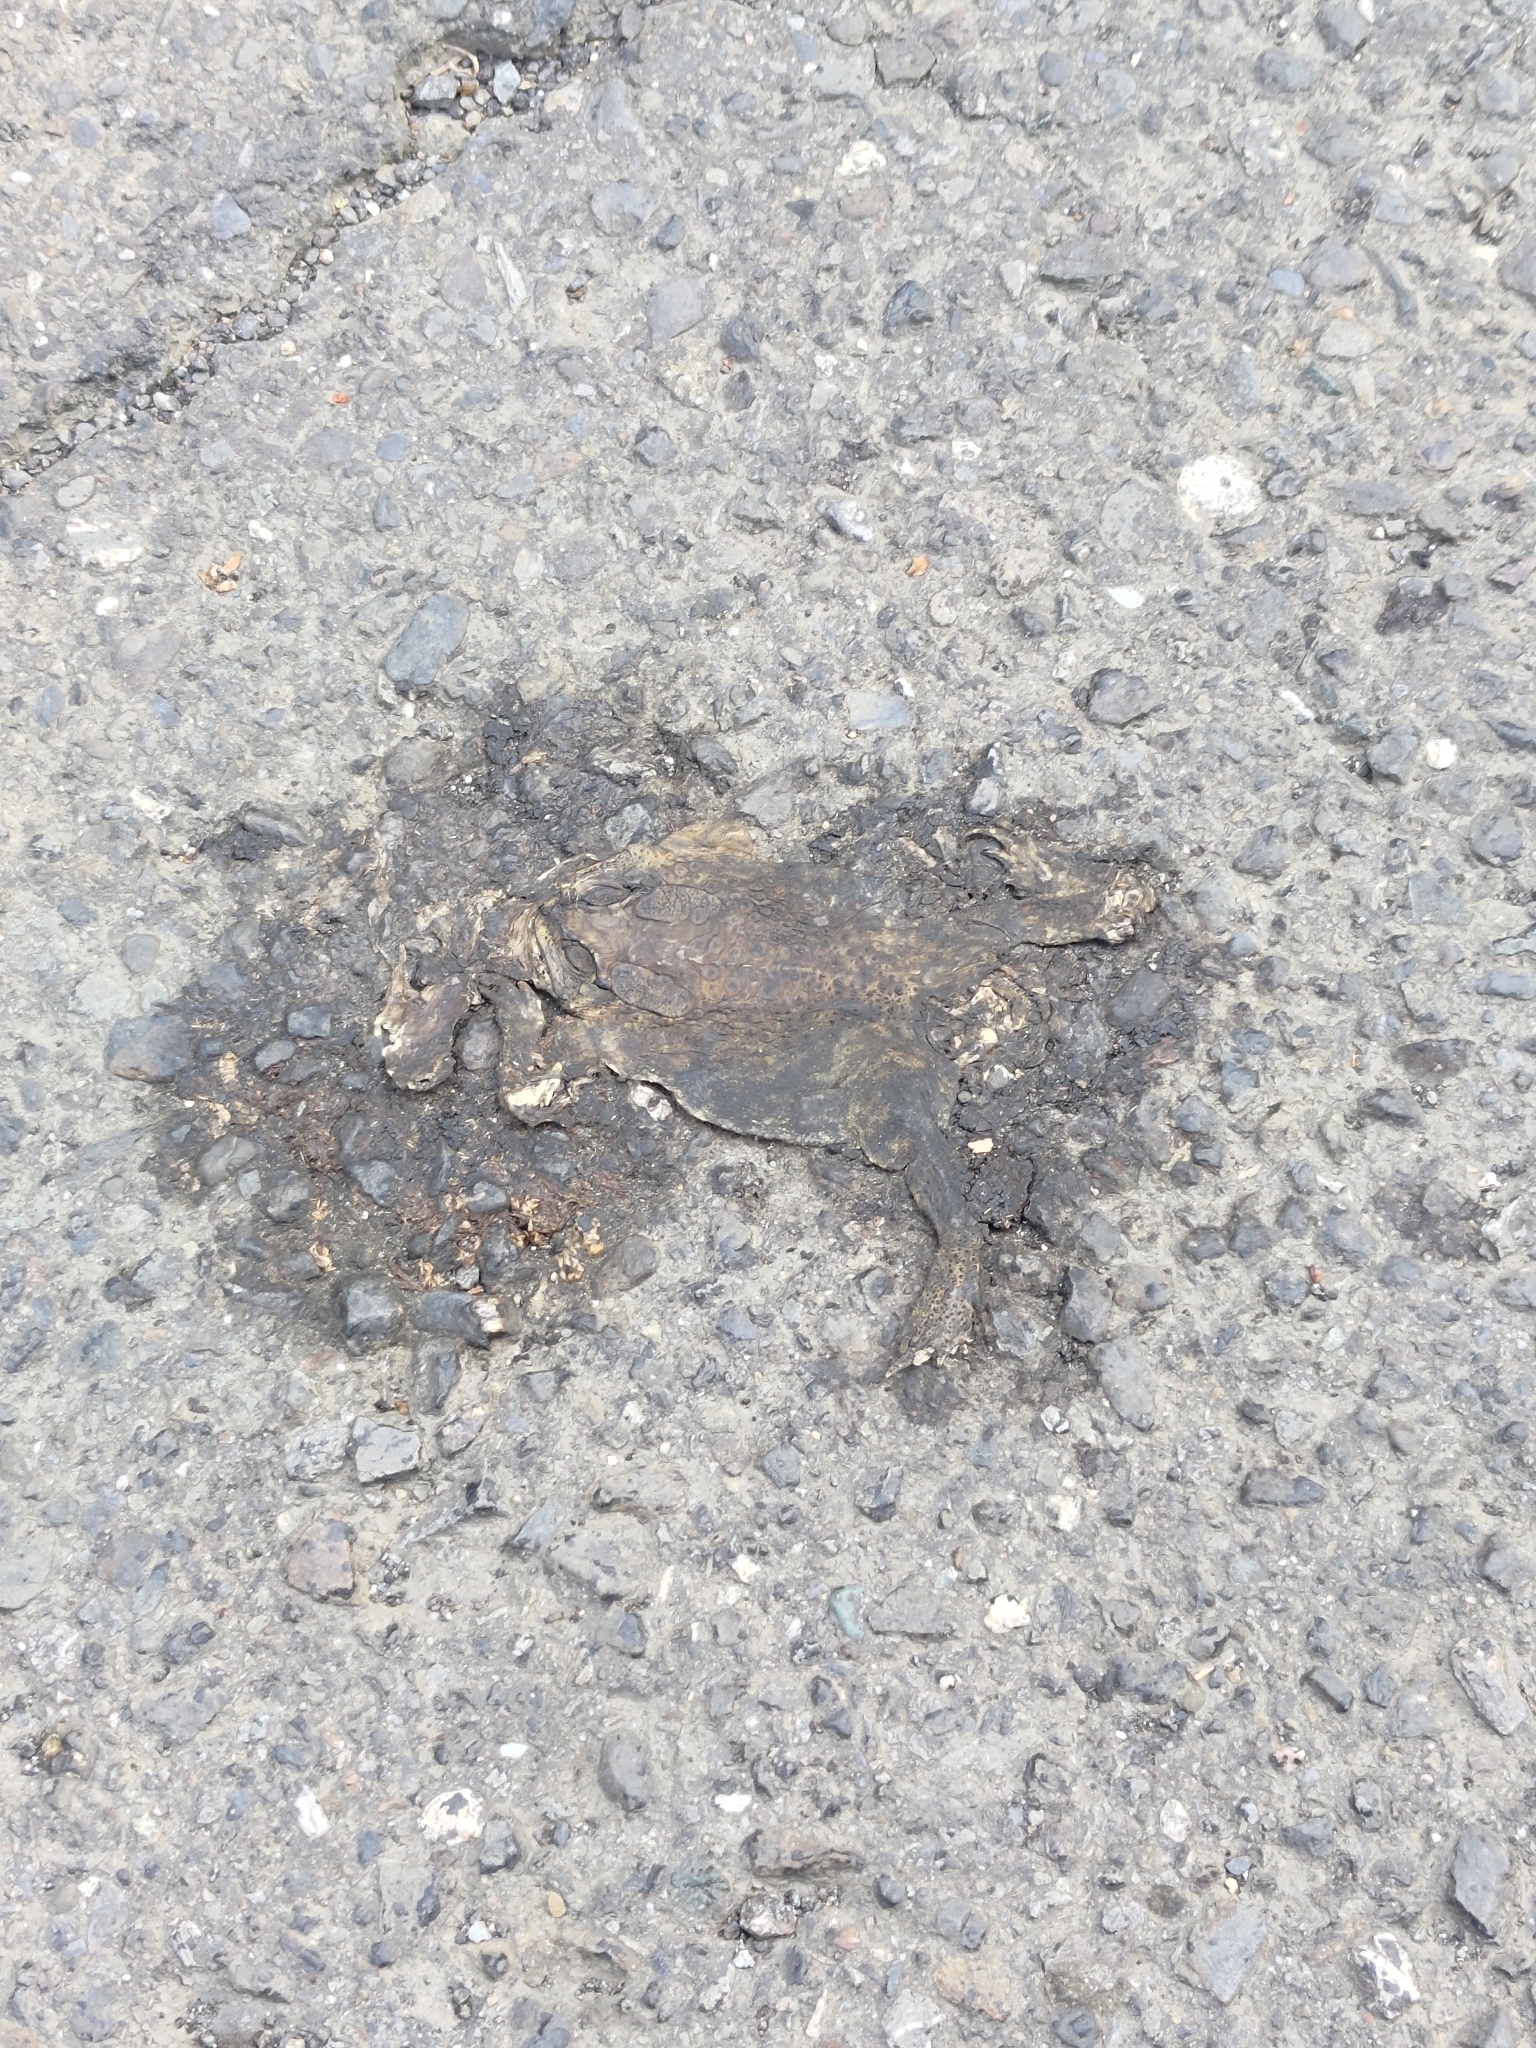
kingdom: Animalia
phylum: Chordata
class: Amphibia
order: Anura
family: Bufonidae
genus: Duttaphrynus
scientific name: Duttaphrynus melanostictus
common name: Common sunda toad
